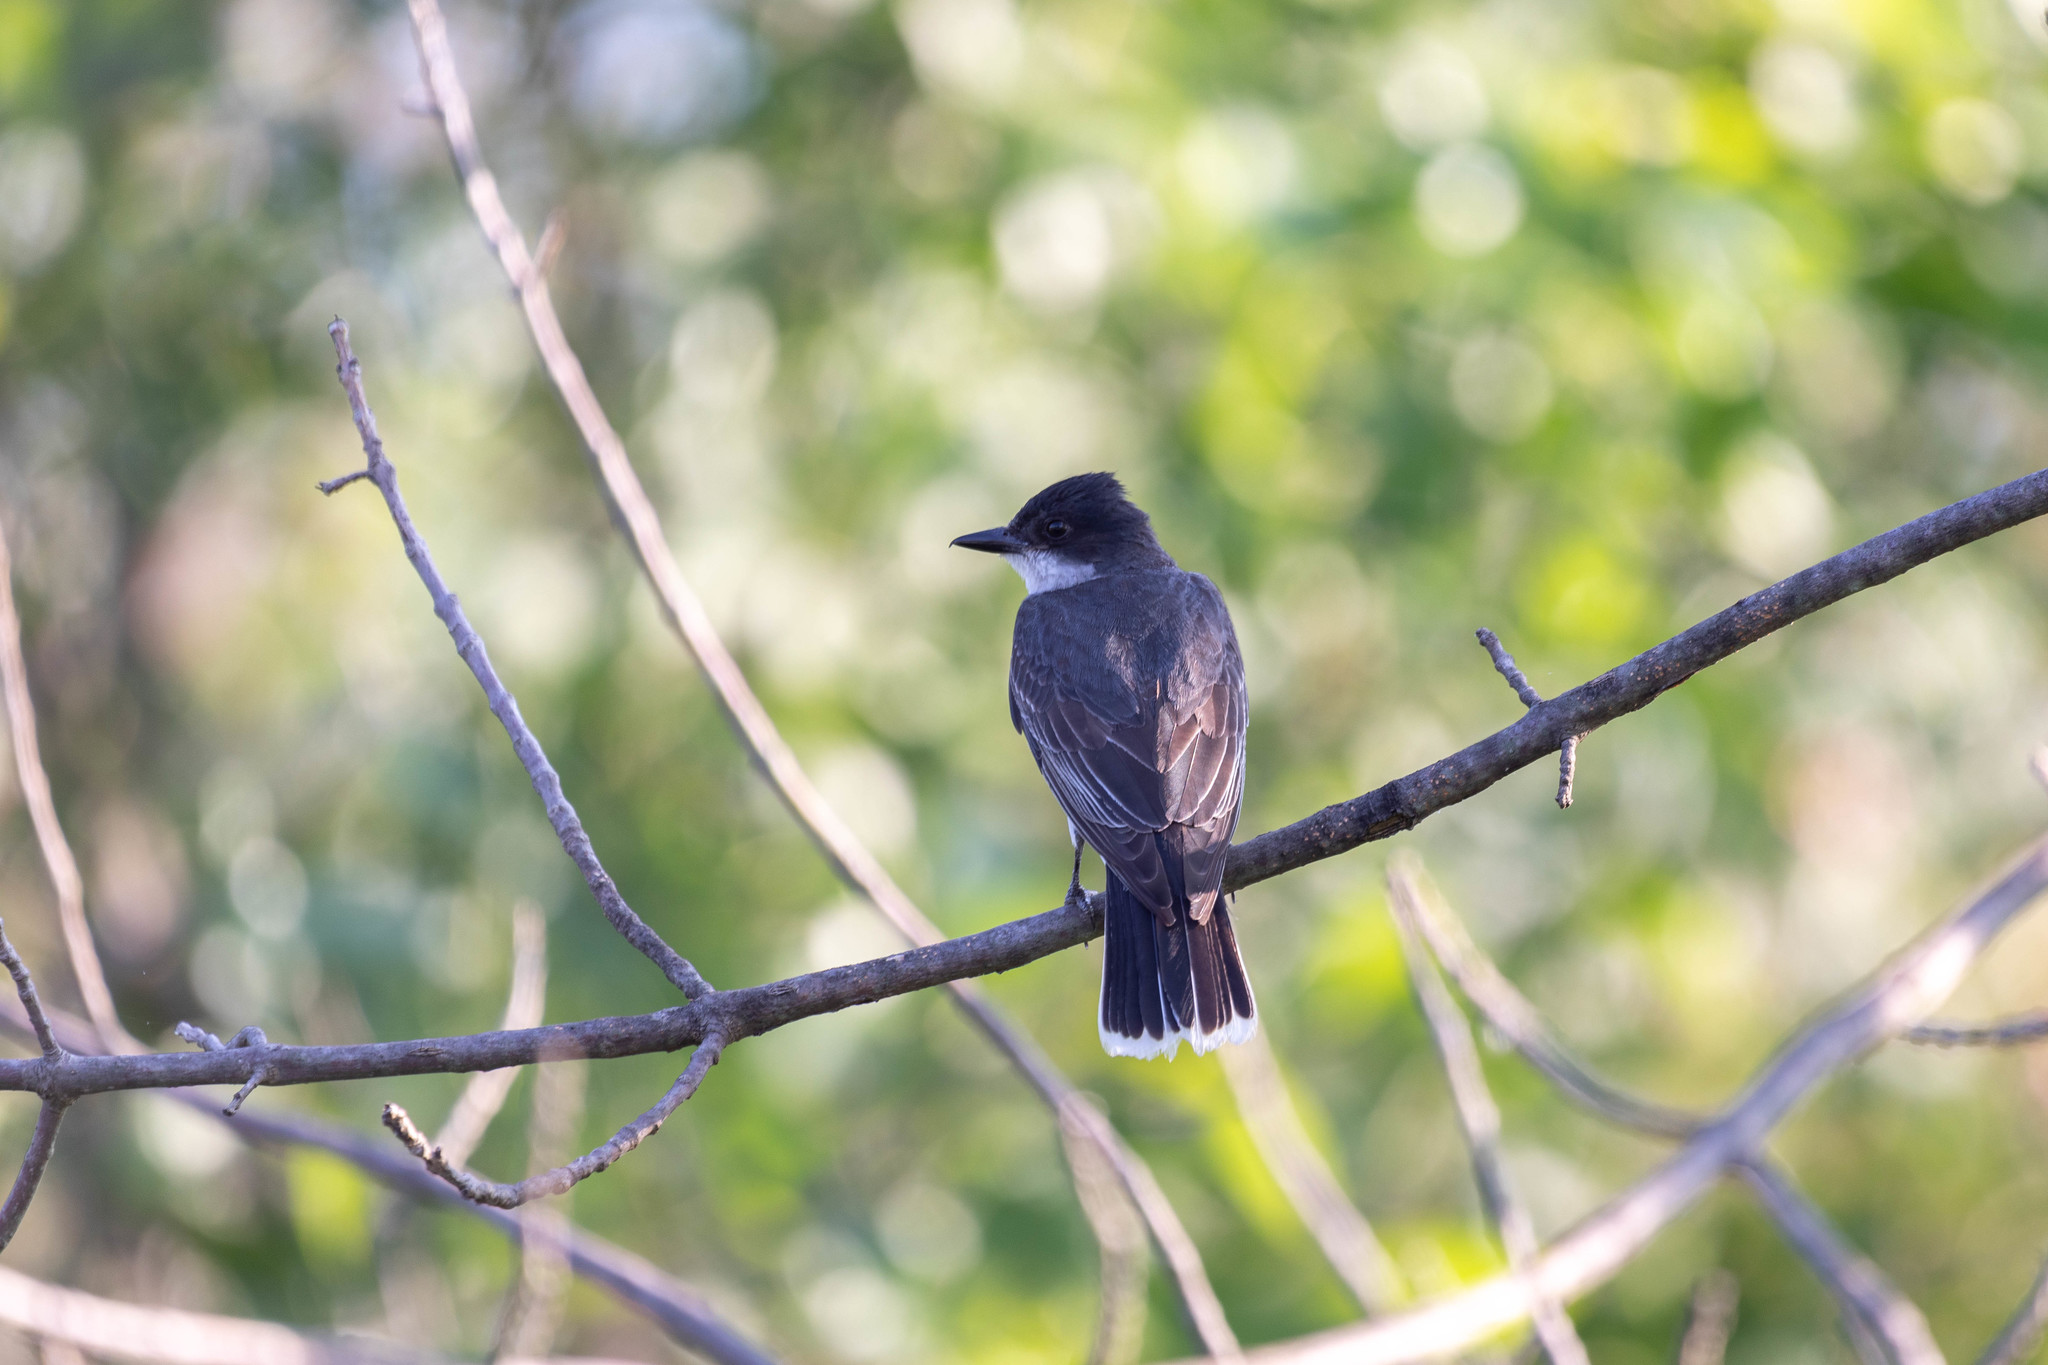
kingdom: Animalia
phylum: Chordata
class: Aves
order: Passeriformes
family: Tyrannidae
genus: Tyrannus
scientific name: Tyrannus tyrannus
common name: Eastern kingbird
